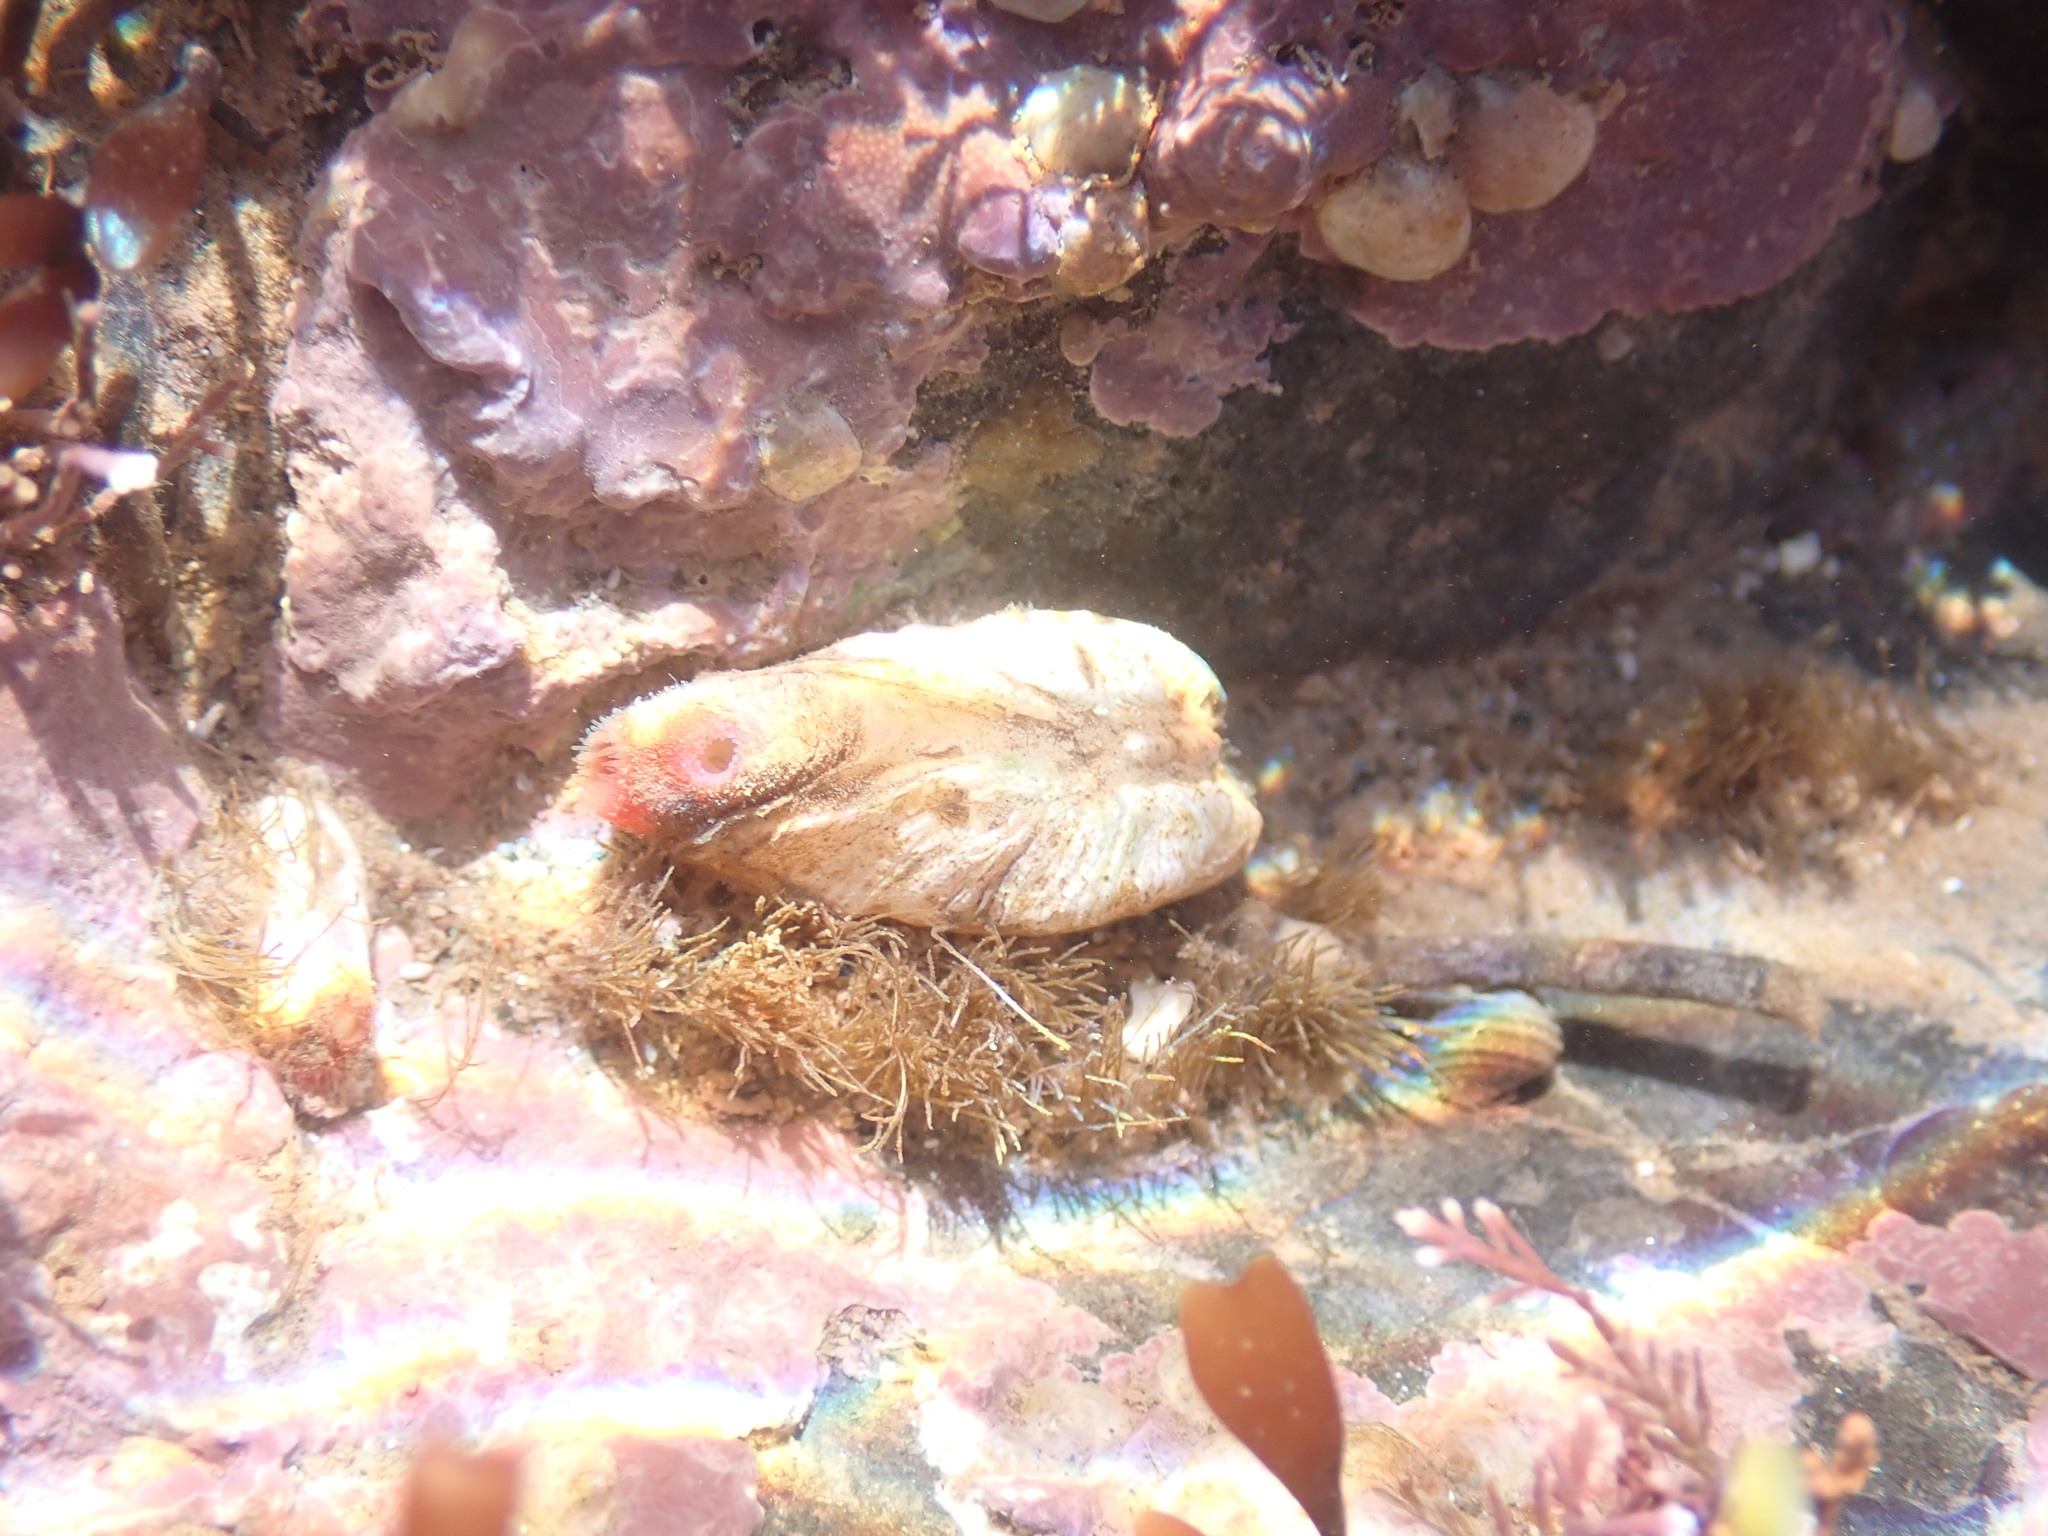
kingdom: Animalia
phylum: Mollusca
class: Bivalvia
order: Adapedonta
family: Hiatellidae
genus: Hiatella
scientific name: Hiatella arctica
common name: Arctic hiatella
